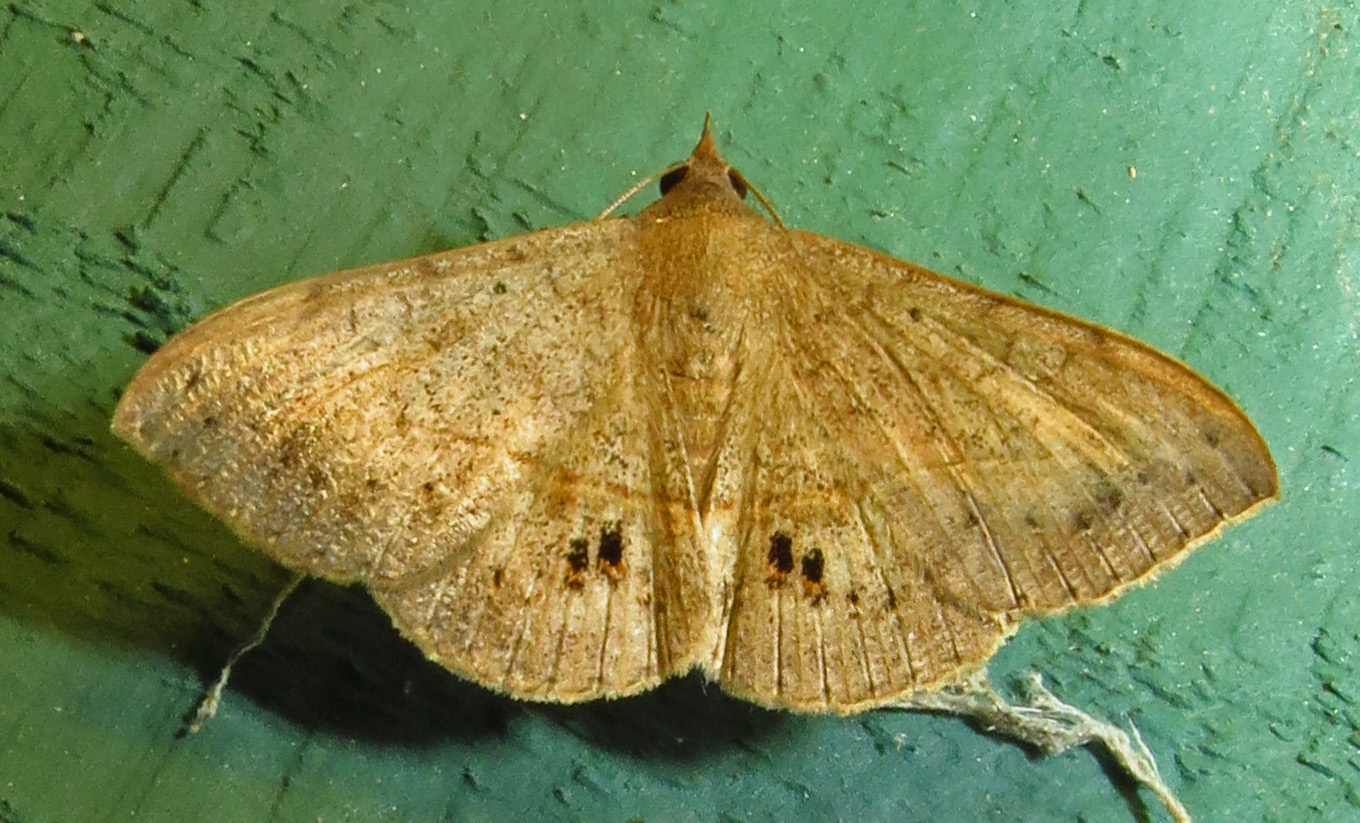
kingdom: Animalia
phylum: Arthropoda
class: Insecta
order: Lepidoptera
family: Erebidae
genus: Anticarsia
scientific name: Anticarsia gemmatalis
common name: Cutworm moth
